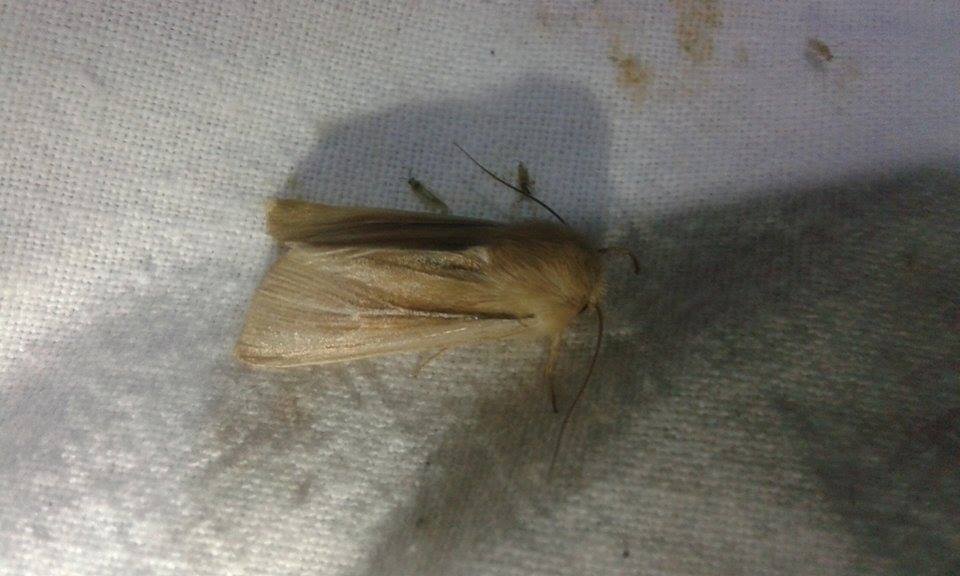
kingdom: Animalia
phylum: Arthropoda
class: Insecta
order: Lepidoptera
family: Noctuidae
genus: Mythimna
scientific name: Mythimna litoralis
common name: Shore wainscot
